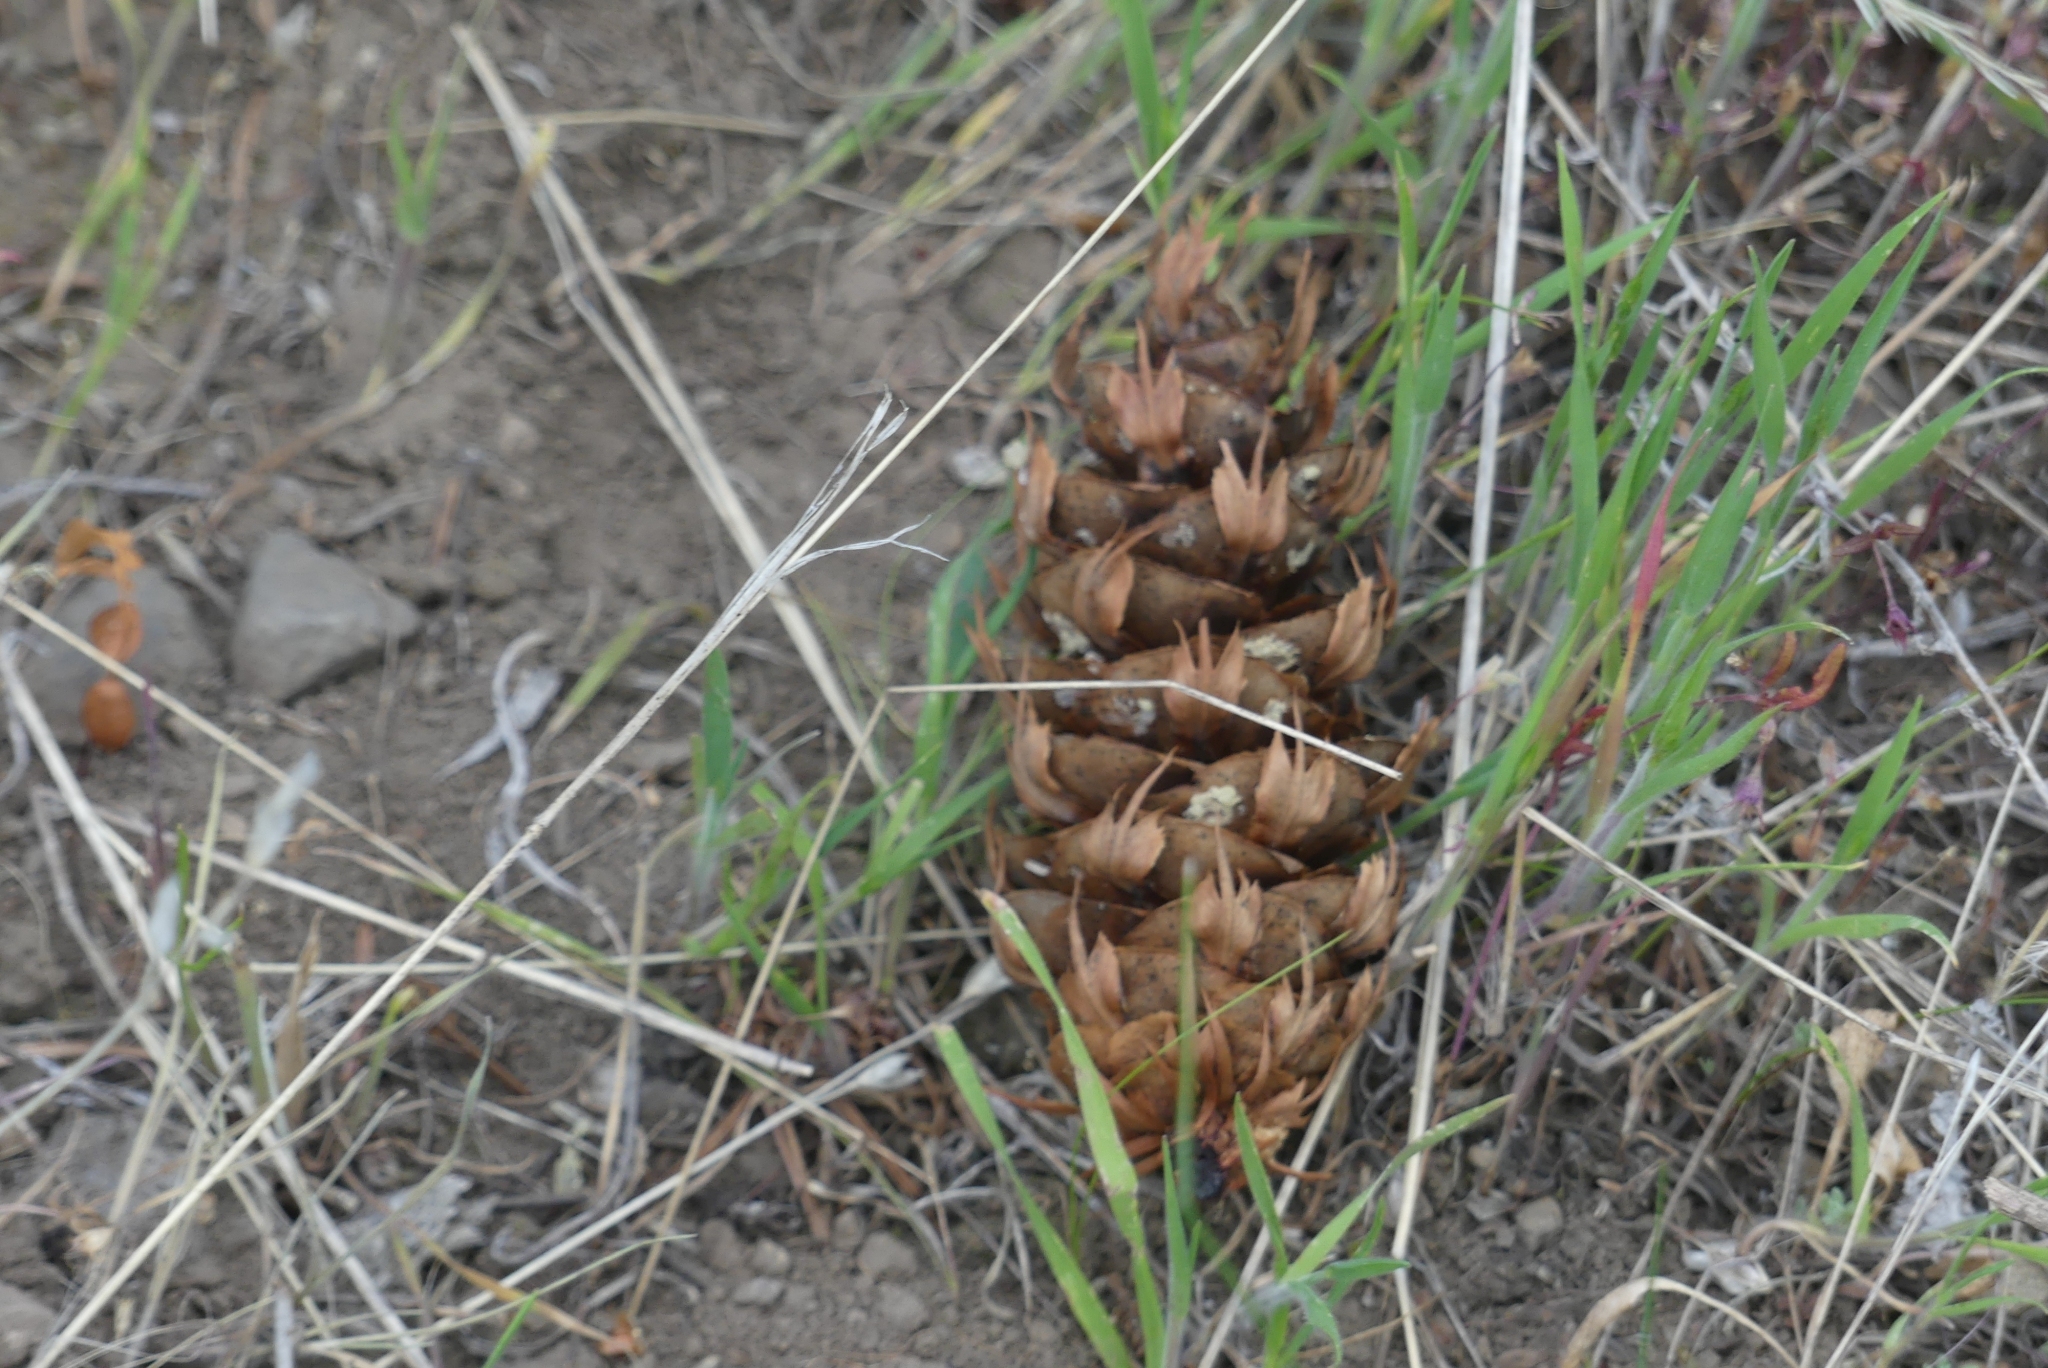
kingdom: Plantae
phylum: Tracheophyta
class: Pinopsida
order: Pinales
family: Pinaceae
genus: Pseudotsuga
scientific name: Pseudotsuga menziesii
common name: Douglas fir
